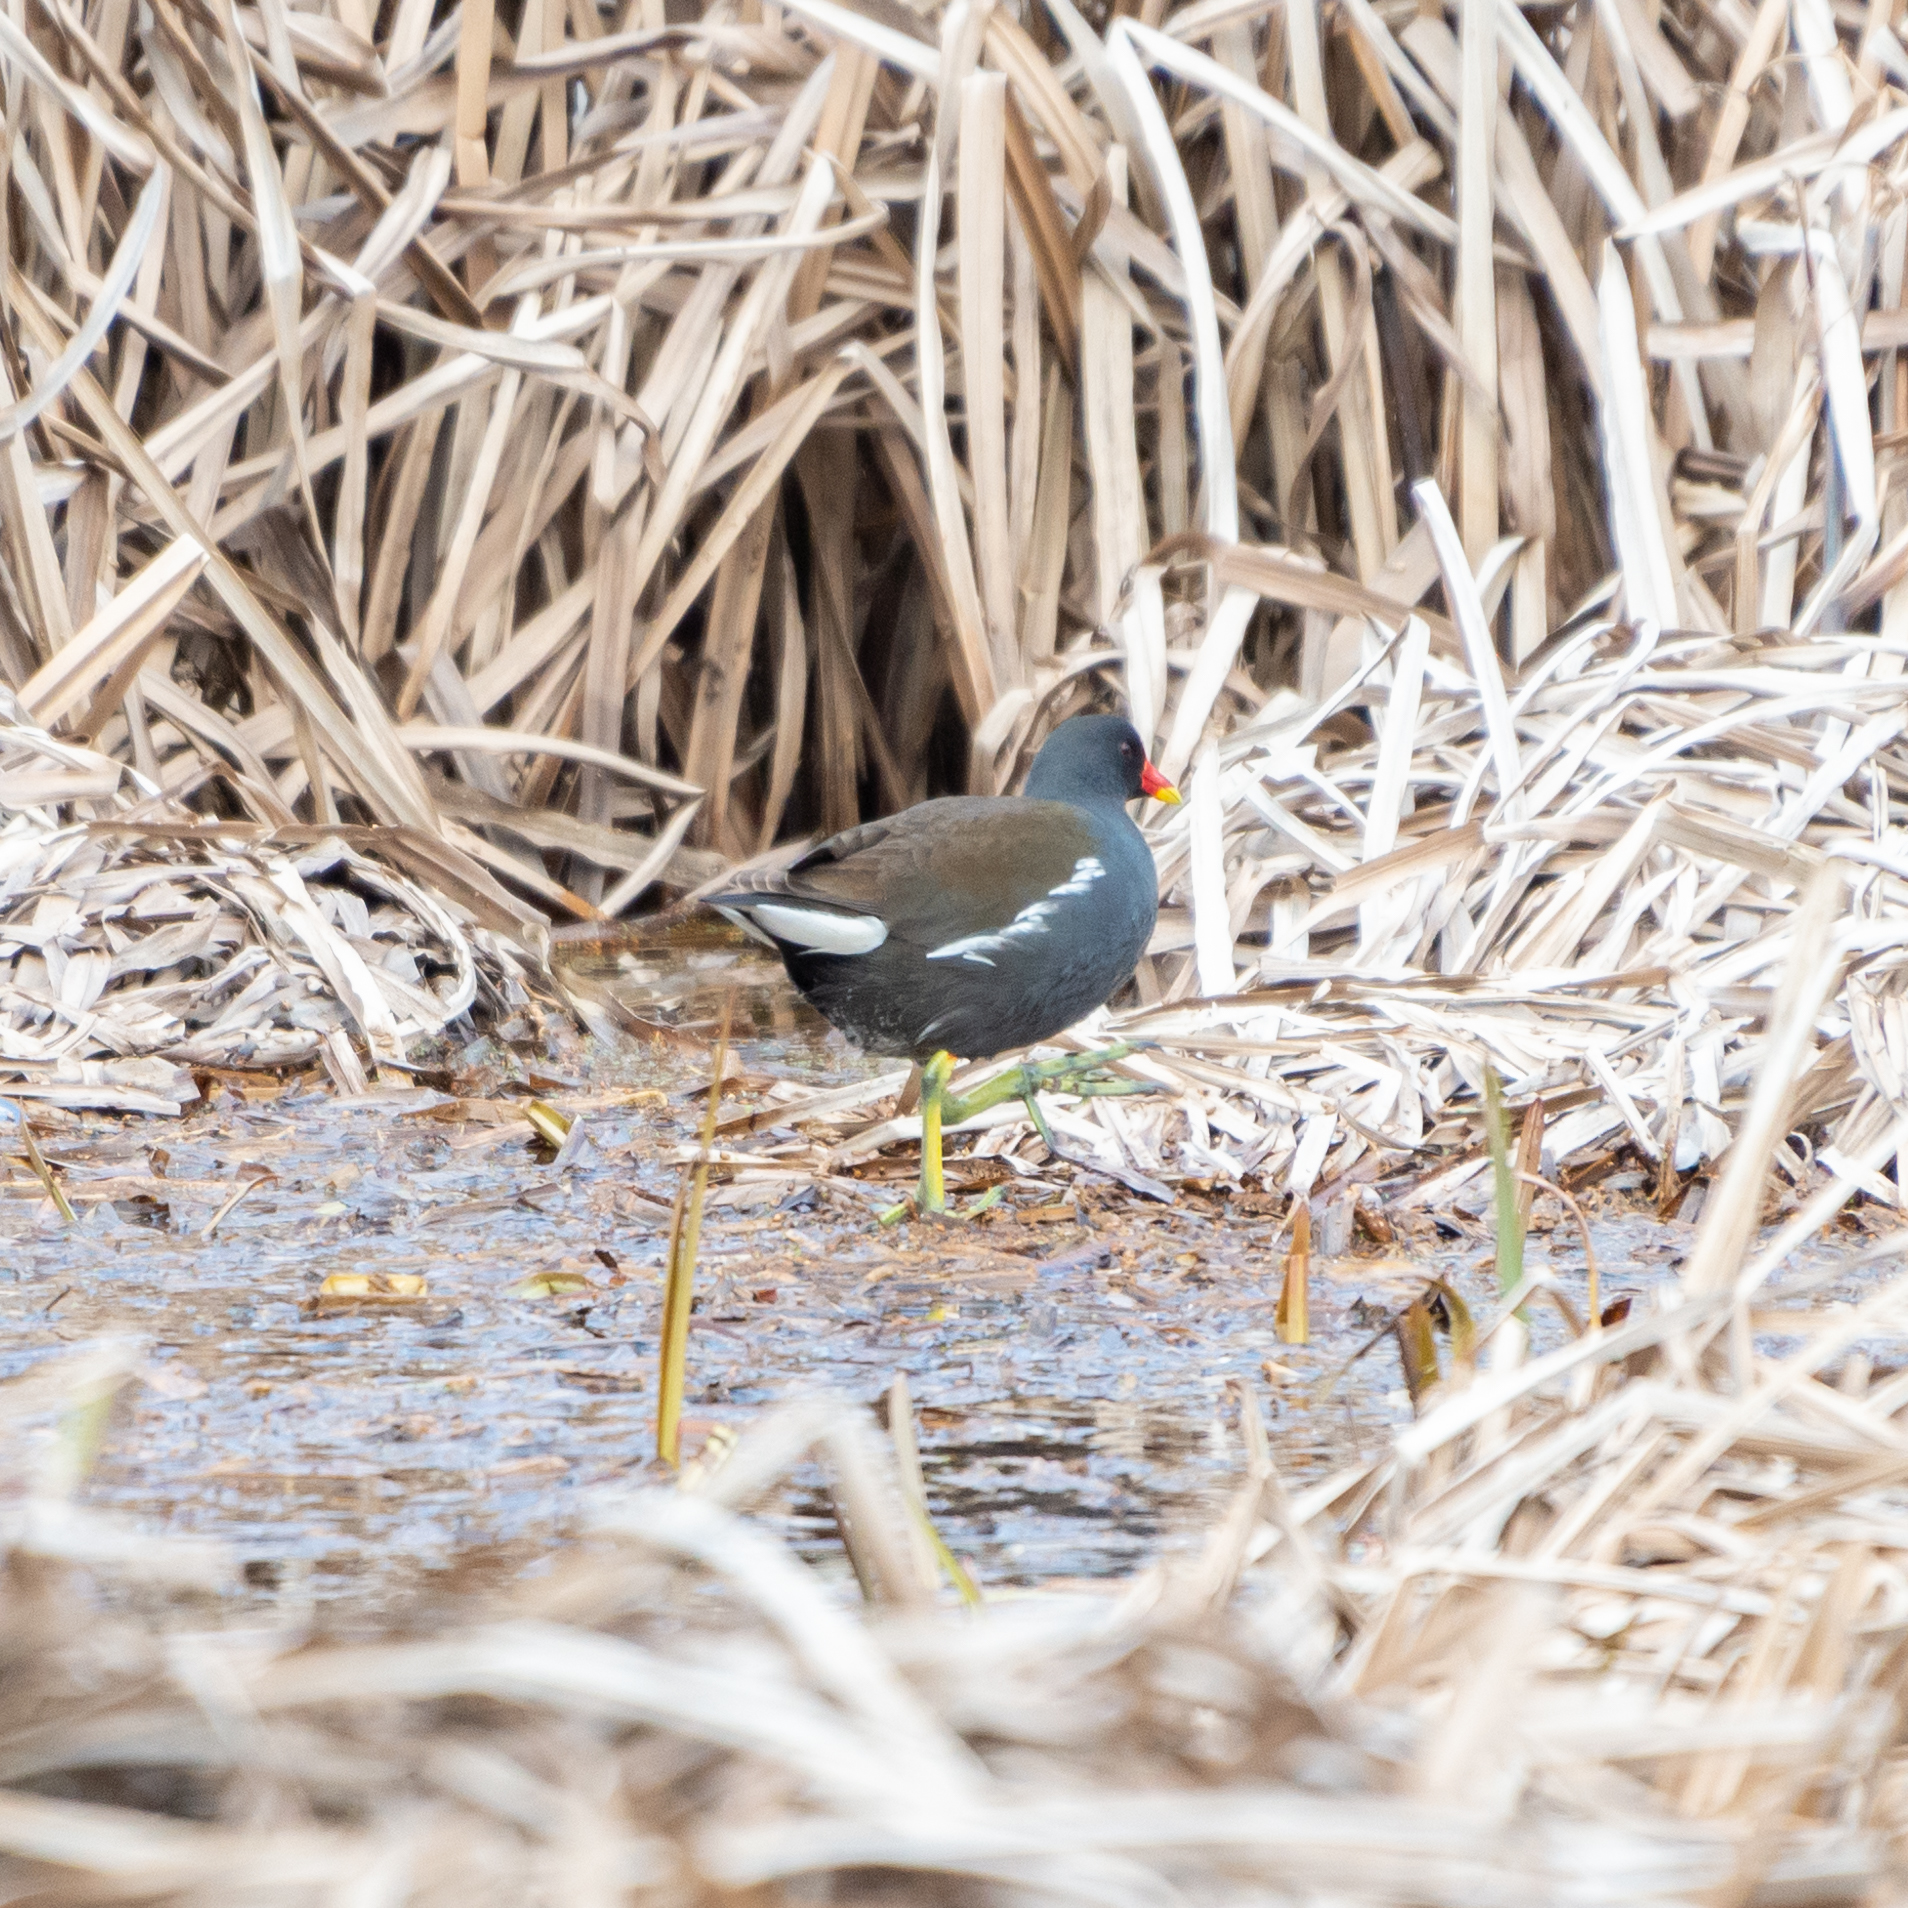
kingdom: Animalia
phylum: Chordata
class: Aves
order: Gruiformes
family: Rallidae
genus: Gallinula
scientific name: Gallinula chloropus
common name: Common moorhen
